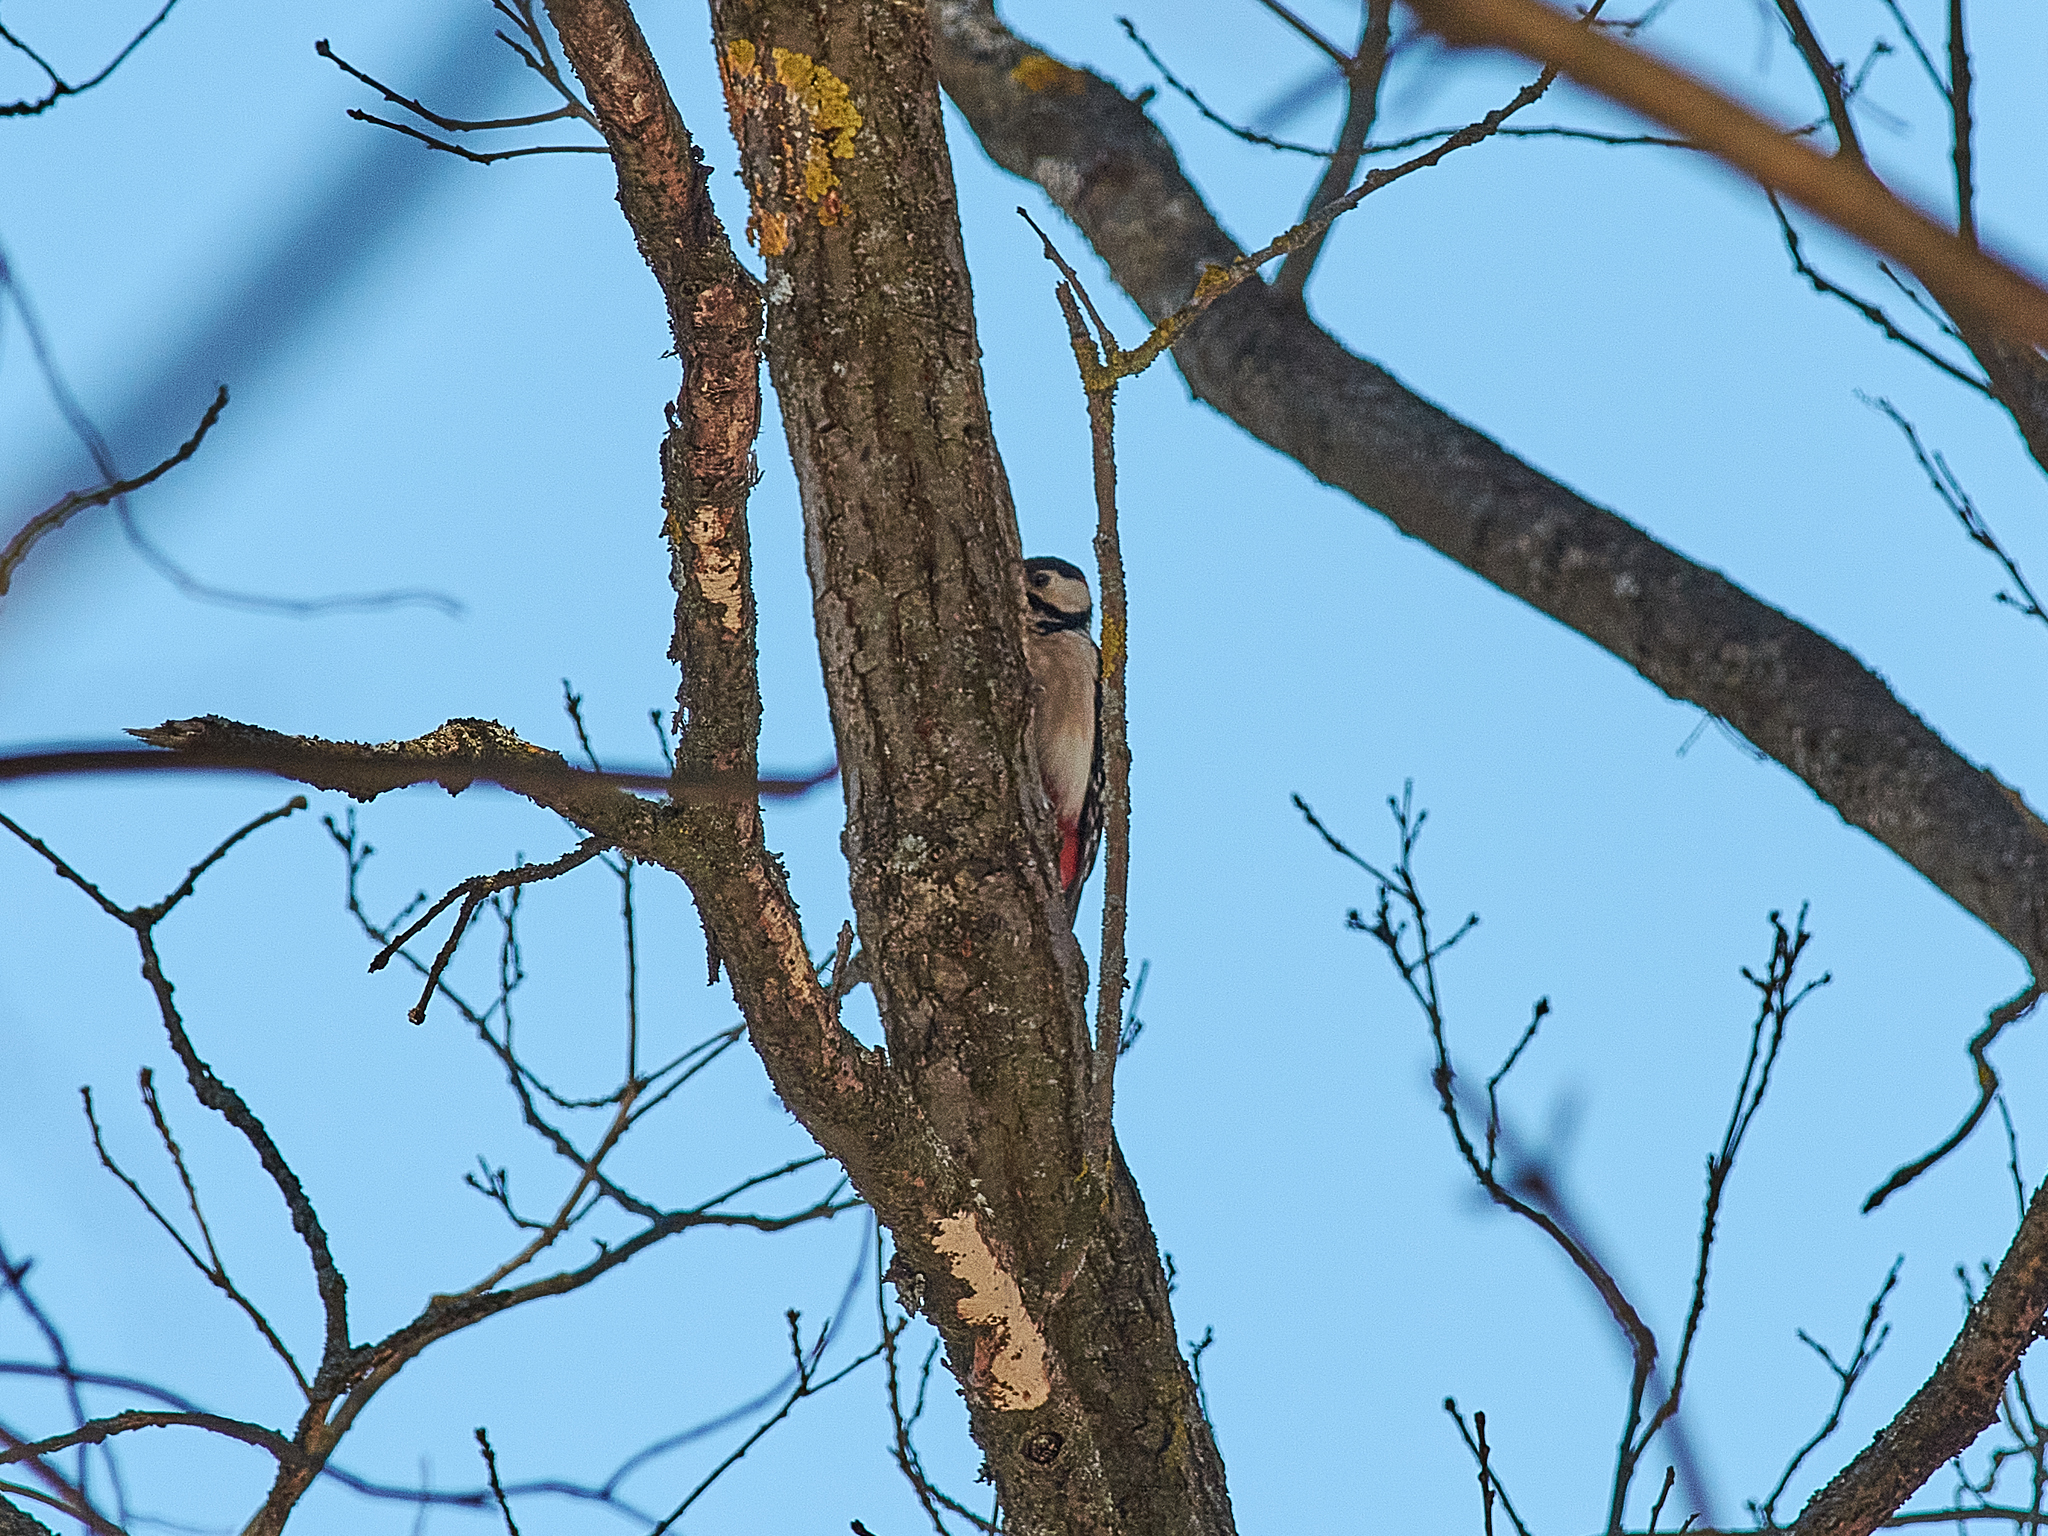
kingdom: Animalia
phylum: Chordata
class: Aves
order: Piciformes
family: Picidae
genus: Dendrocopos
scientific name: Dendrocopos major
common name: Great spotted woodpecker
